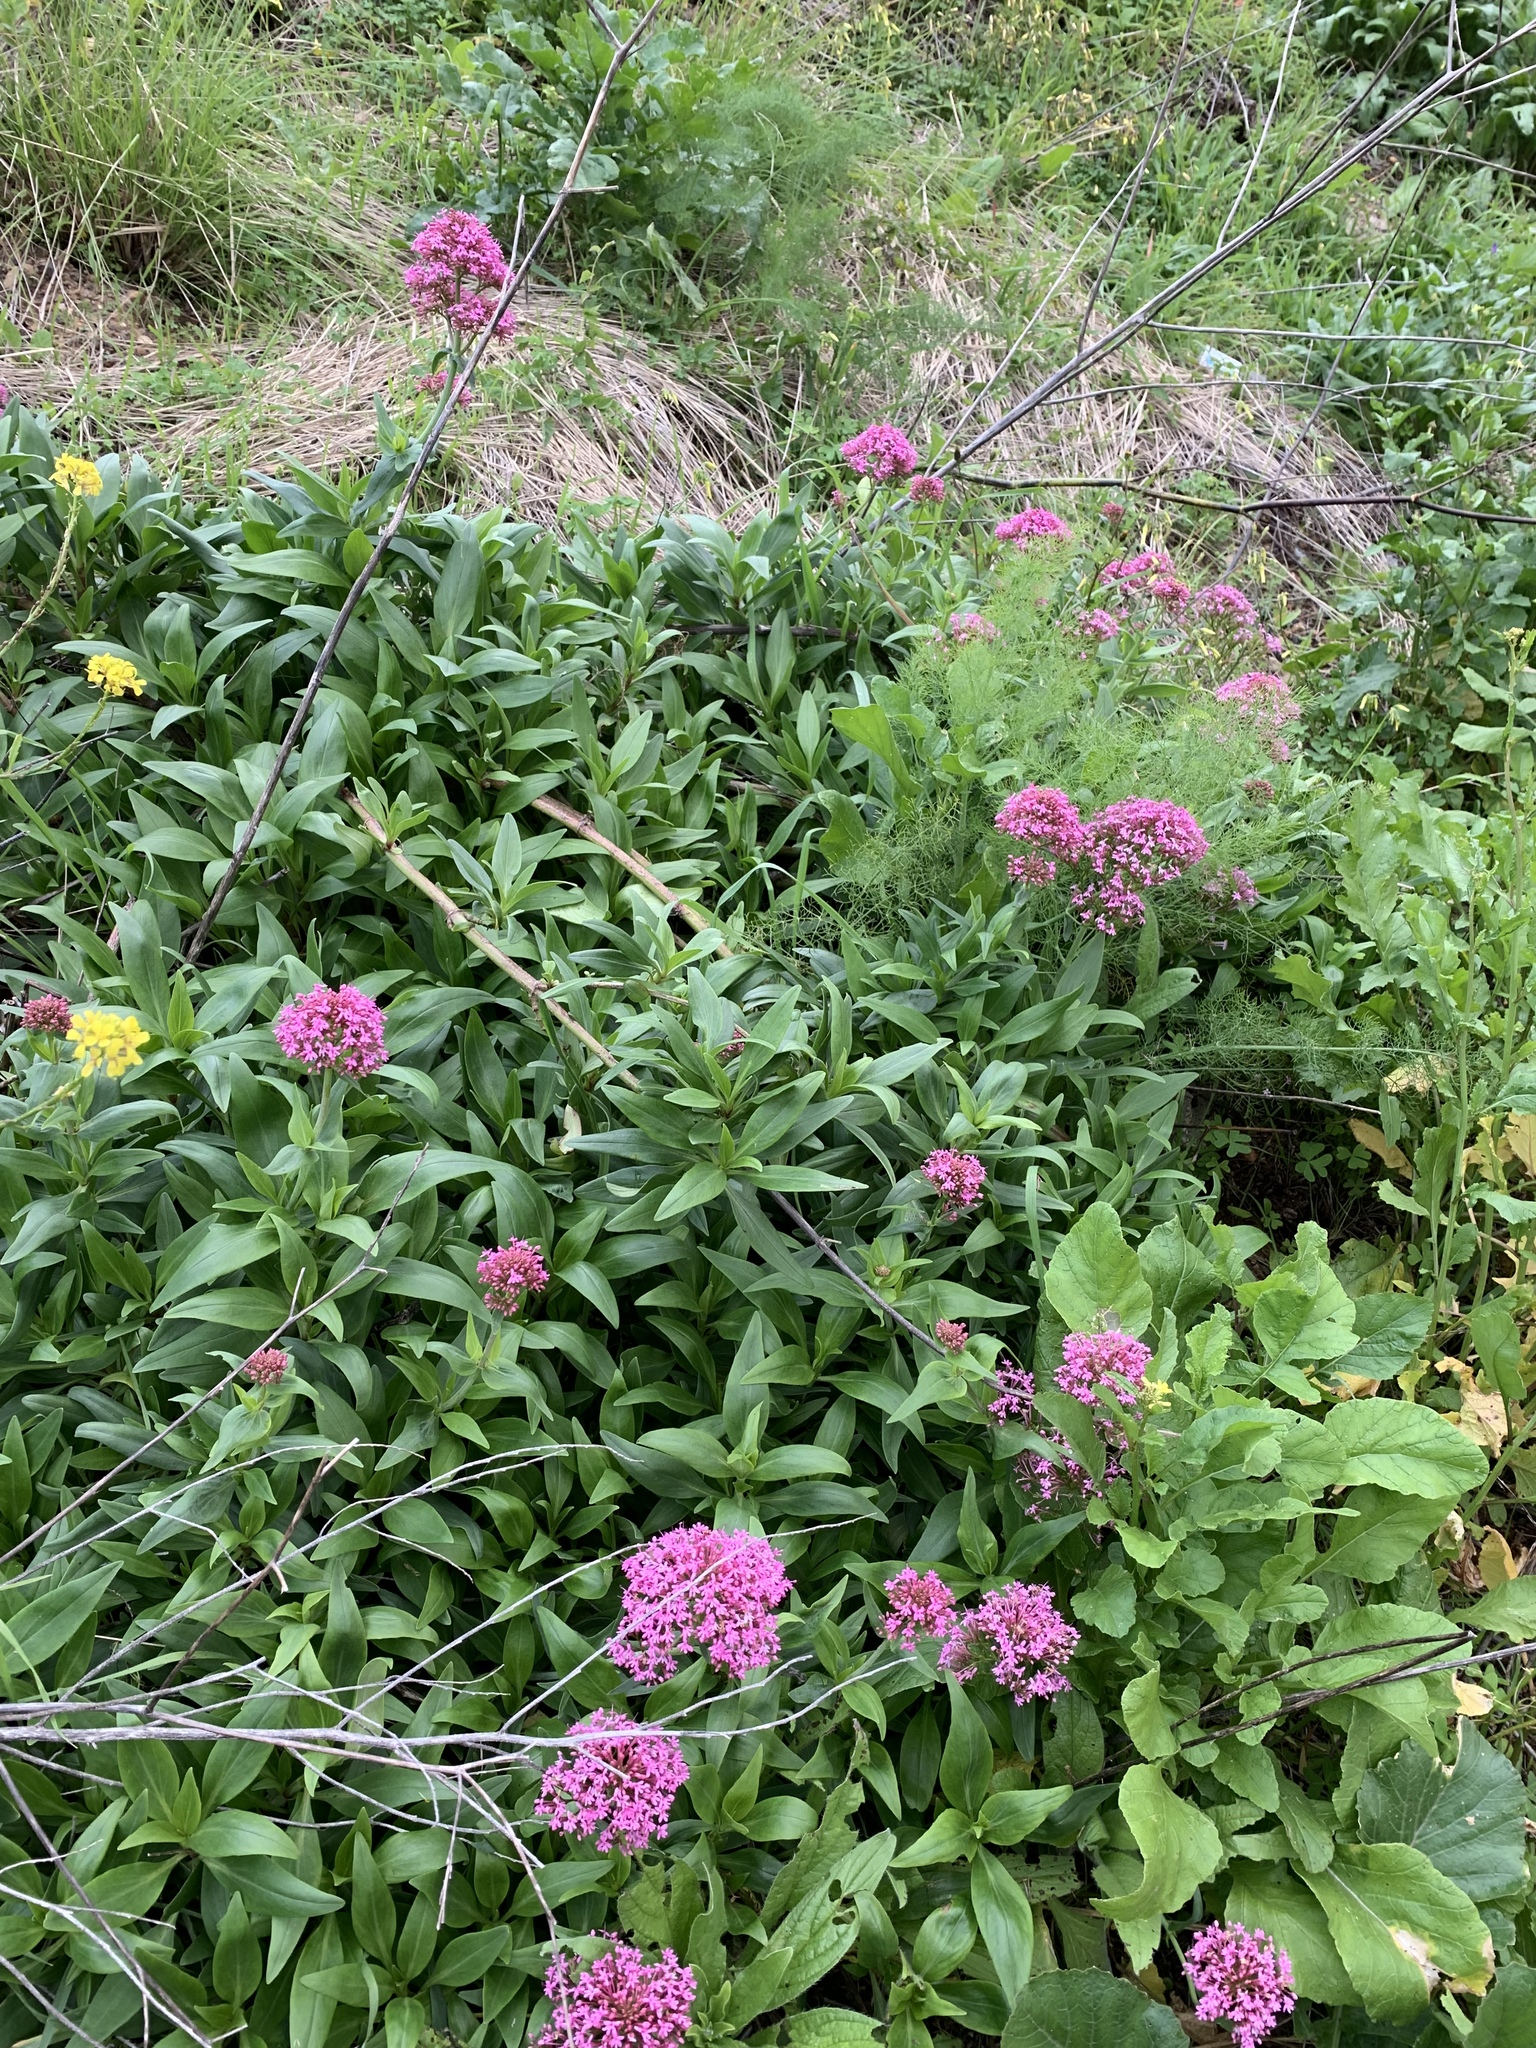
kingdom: Plantae
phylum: Tracheophyta
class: Magnoliopsida
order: Dipsacales
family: Caprifoliaceae
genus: Centranthus
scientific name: Centranthus ruber
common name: Red valerian
